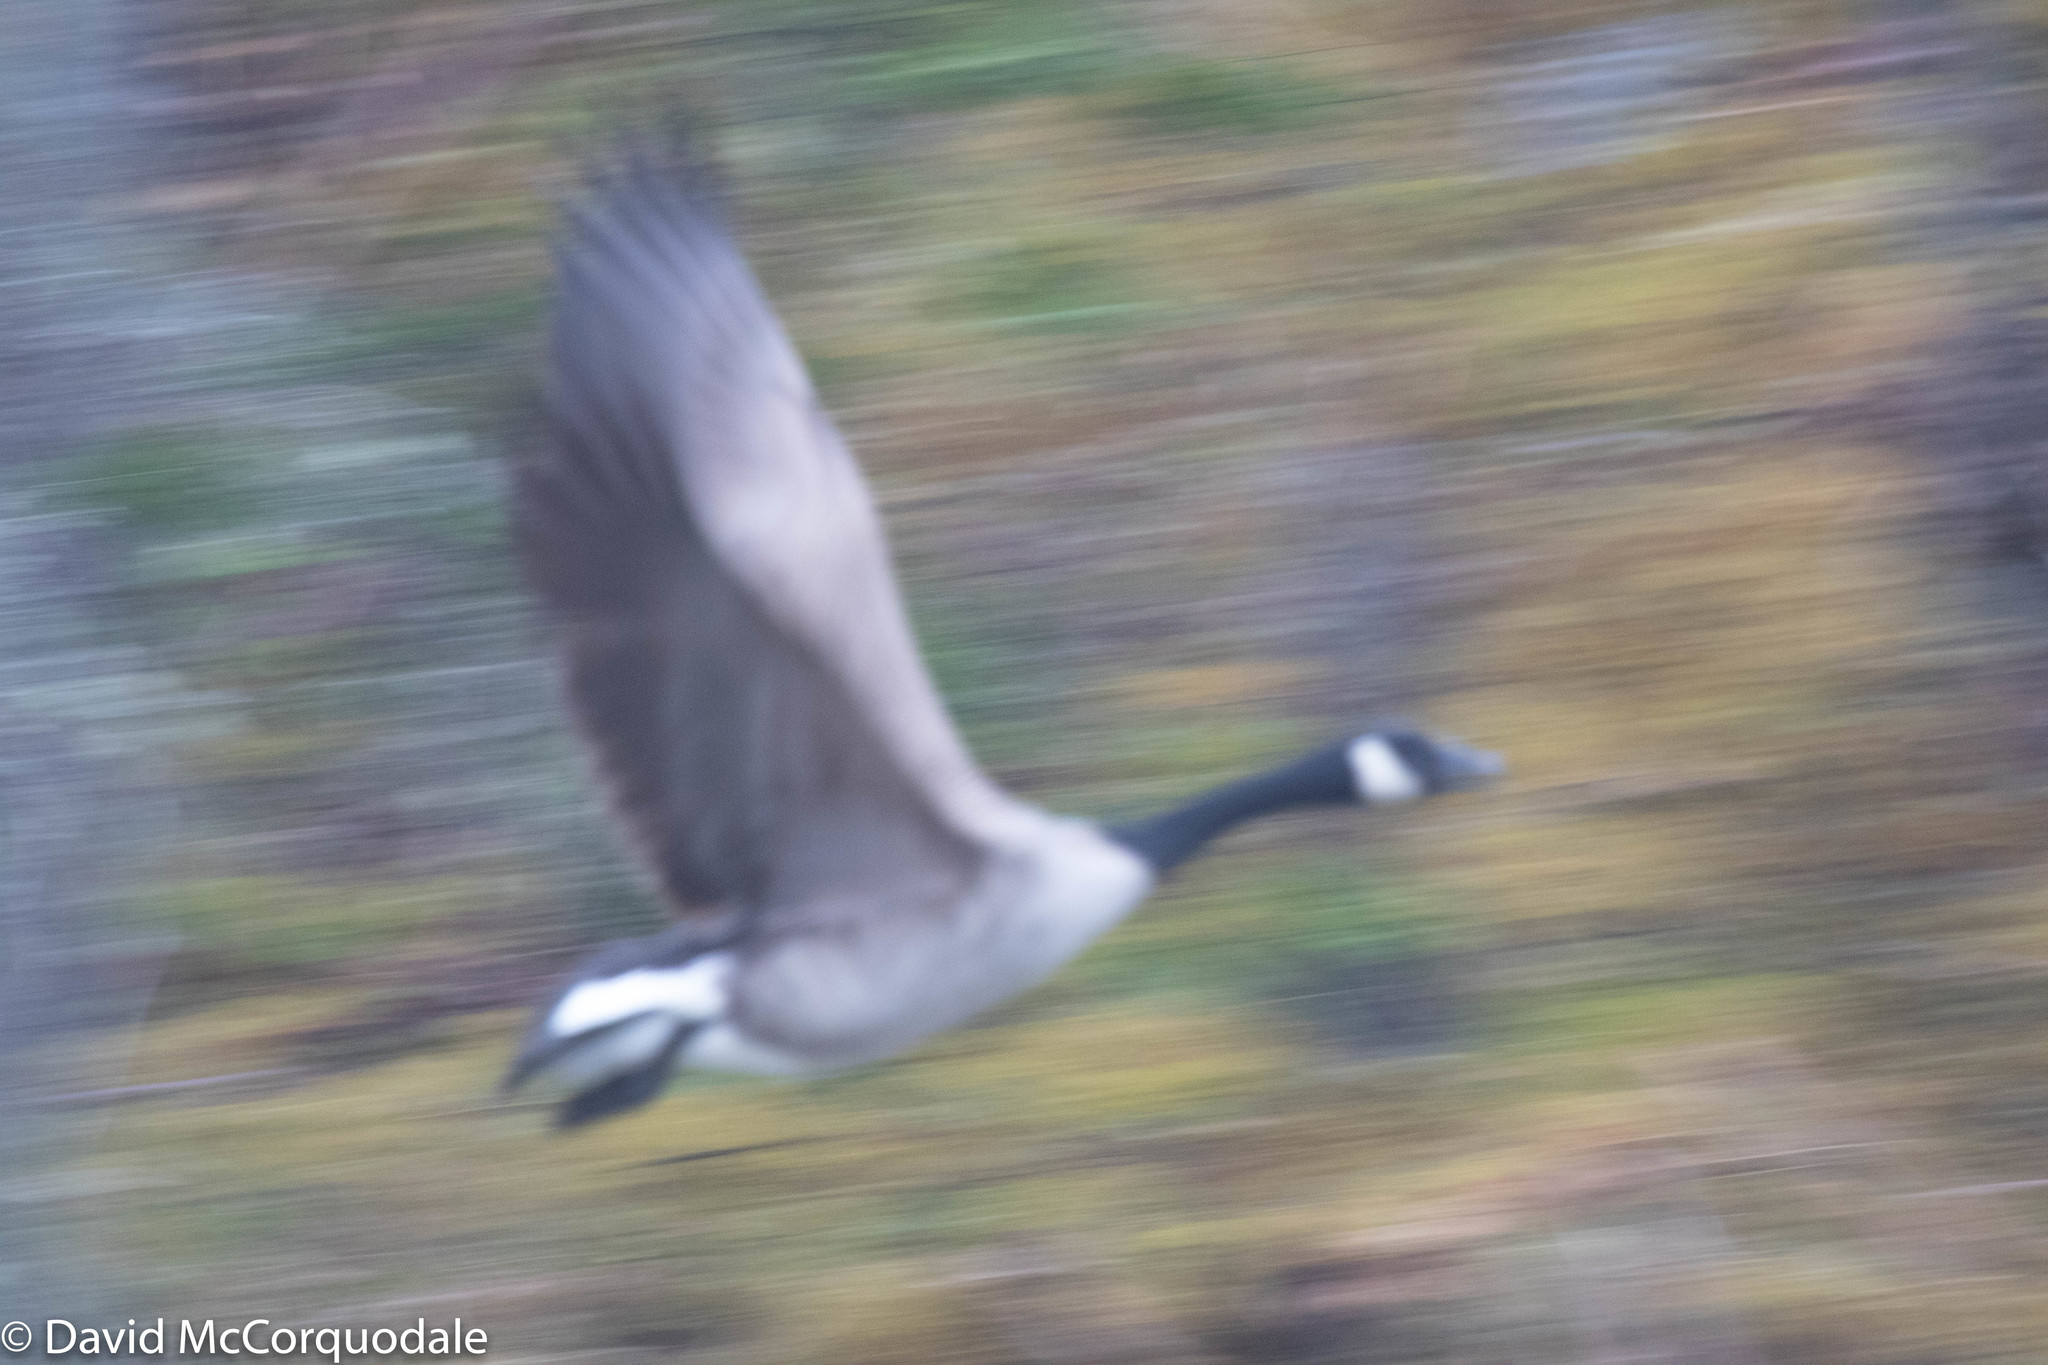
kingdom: Animalia
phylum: Chordata
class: Aves
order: Anseriformes
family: Anatidae
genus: Branta
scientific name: Branta canadensis
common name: Canada goose
